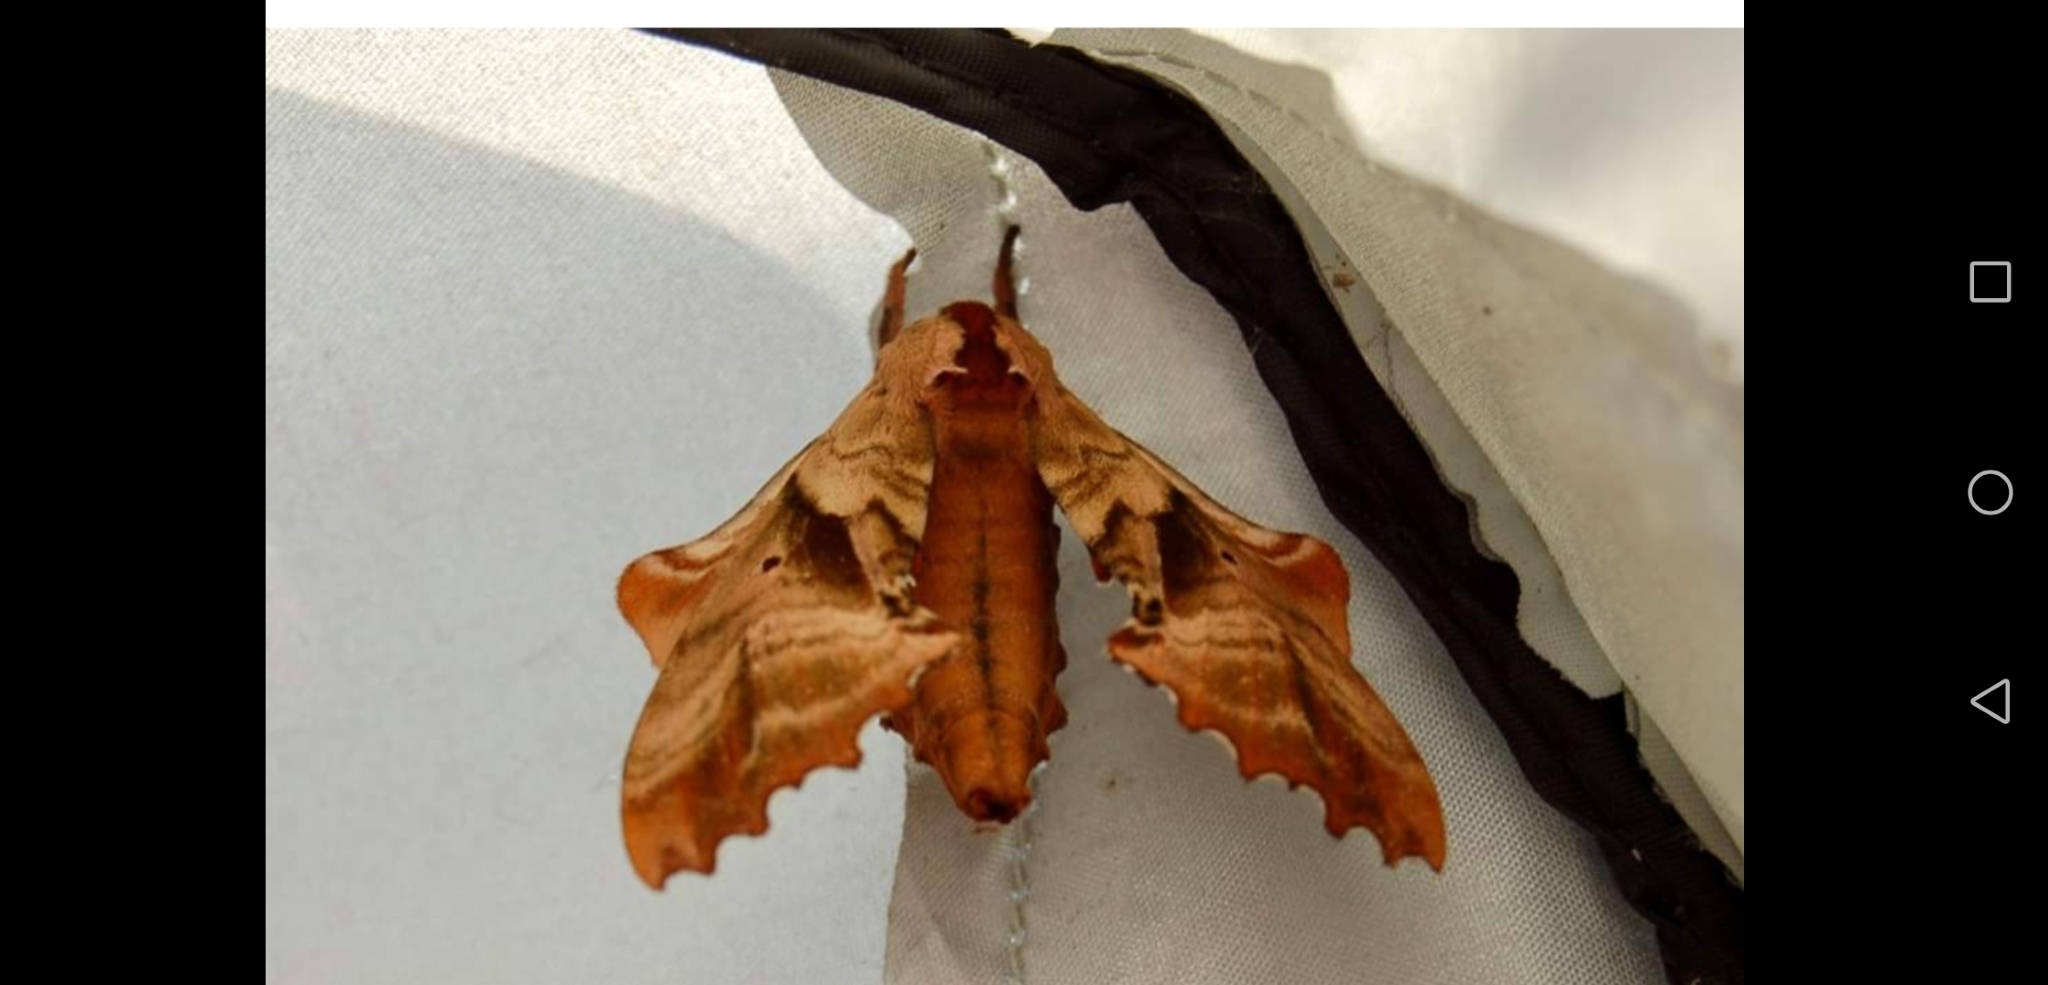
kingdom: Animalia
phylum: Arthropoda
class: Insecta
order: Lepidoptera
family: Sphingidae
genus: Paonias
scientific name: Paonias excaecata
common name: Blind-eyed sphinx
